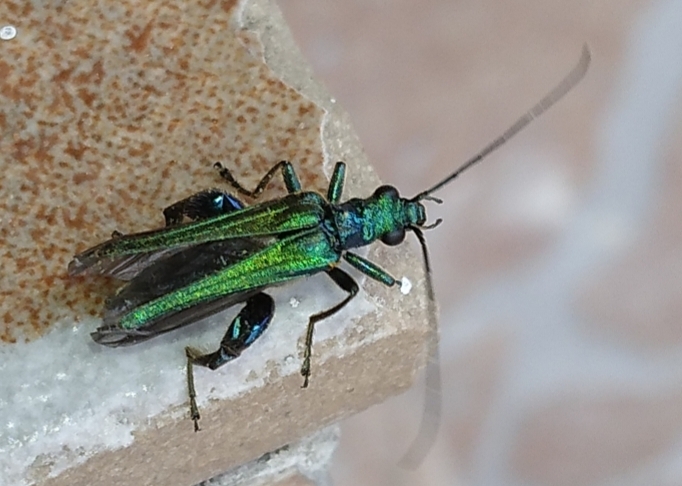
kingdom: Animalia
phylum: Arthropoda
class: Insecta
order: Coleoptera
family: Oedemeridae
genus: Oedemera
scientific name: Oedemera nobilis
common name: Swollen-thighed beetle
